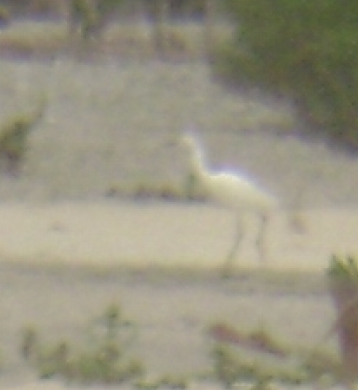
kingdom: Animalia
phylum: Chordata
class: Aves
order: Pelecaniformes
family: Ardeidae
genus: Egretta
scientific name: Egretta thula
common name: Snowy egret
